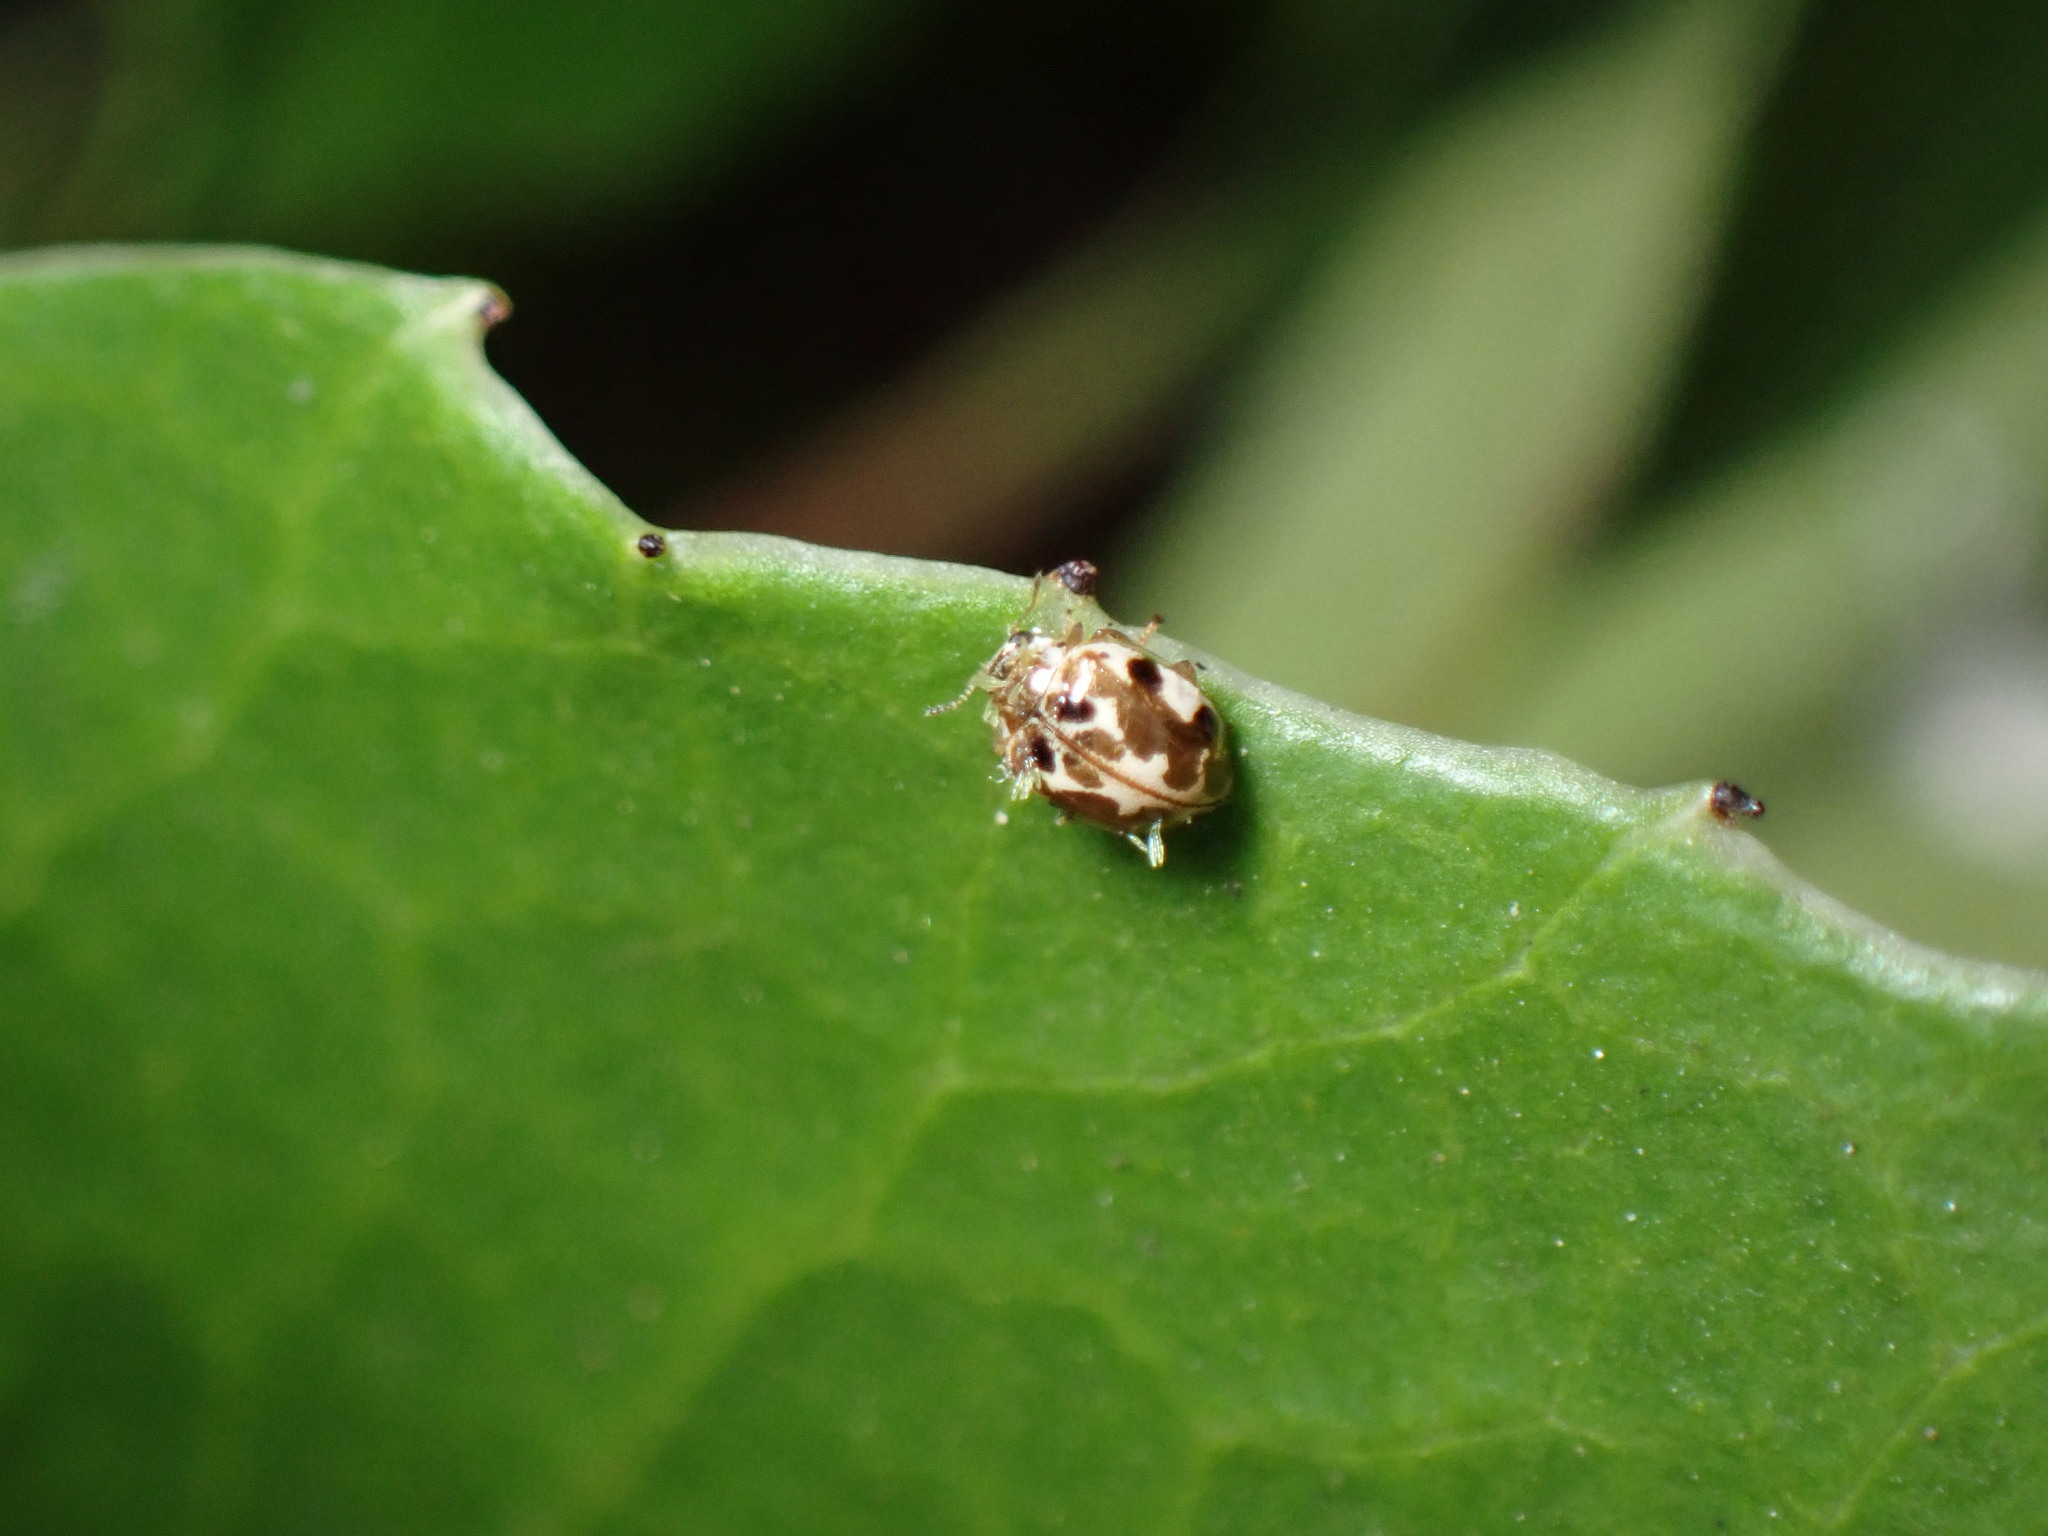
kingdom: Animalia
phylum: Arthropoda
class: Insecta
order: Coleoptera
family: Coccinellidae
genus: Psyllobora
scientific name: Psyllobora vigintimaculata
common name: Ladybird beetle
